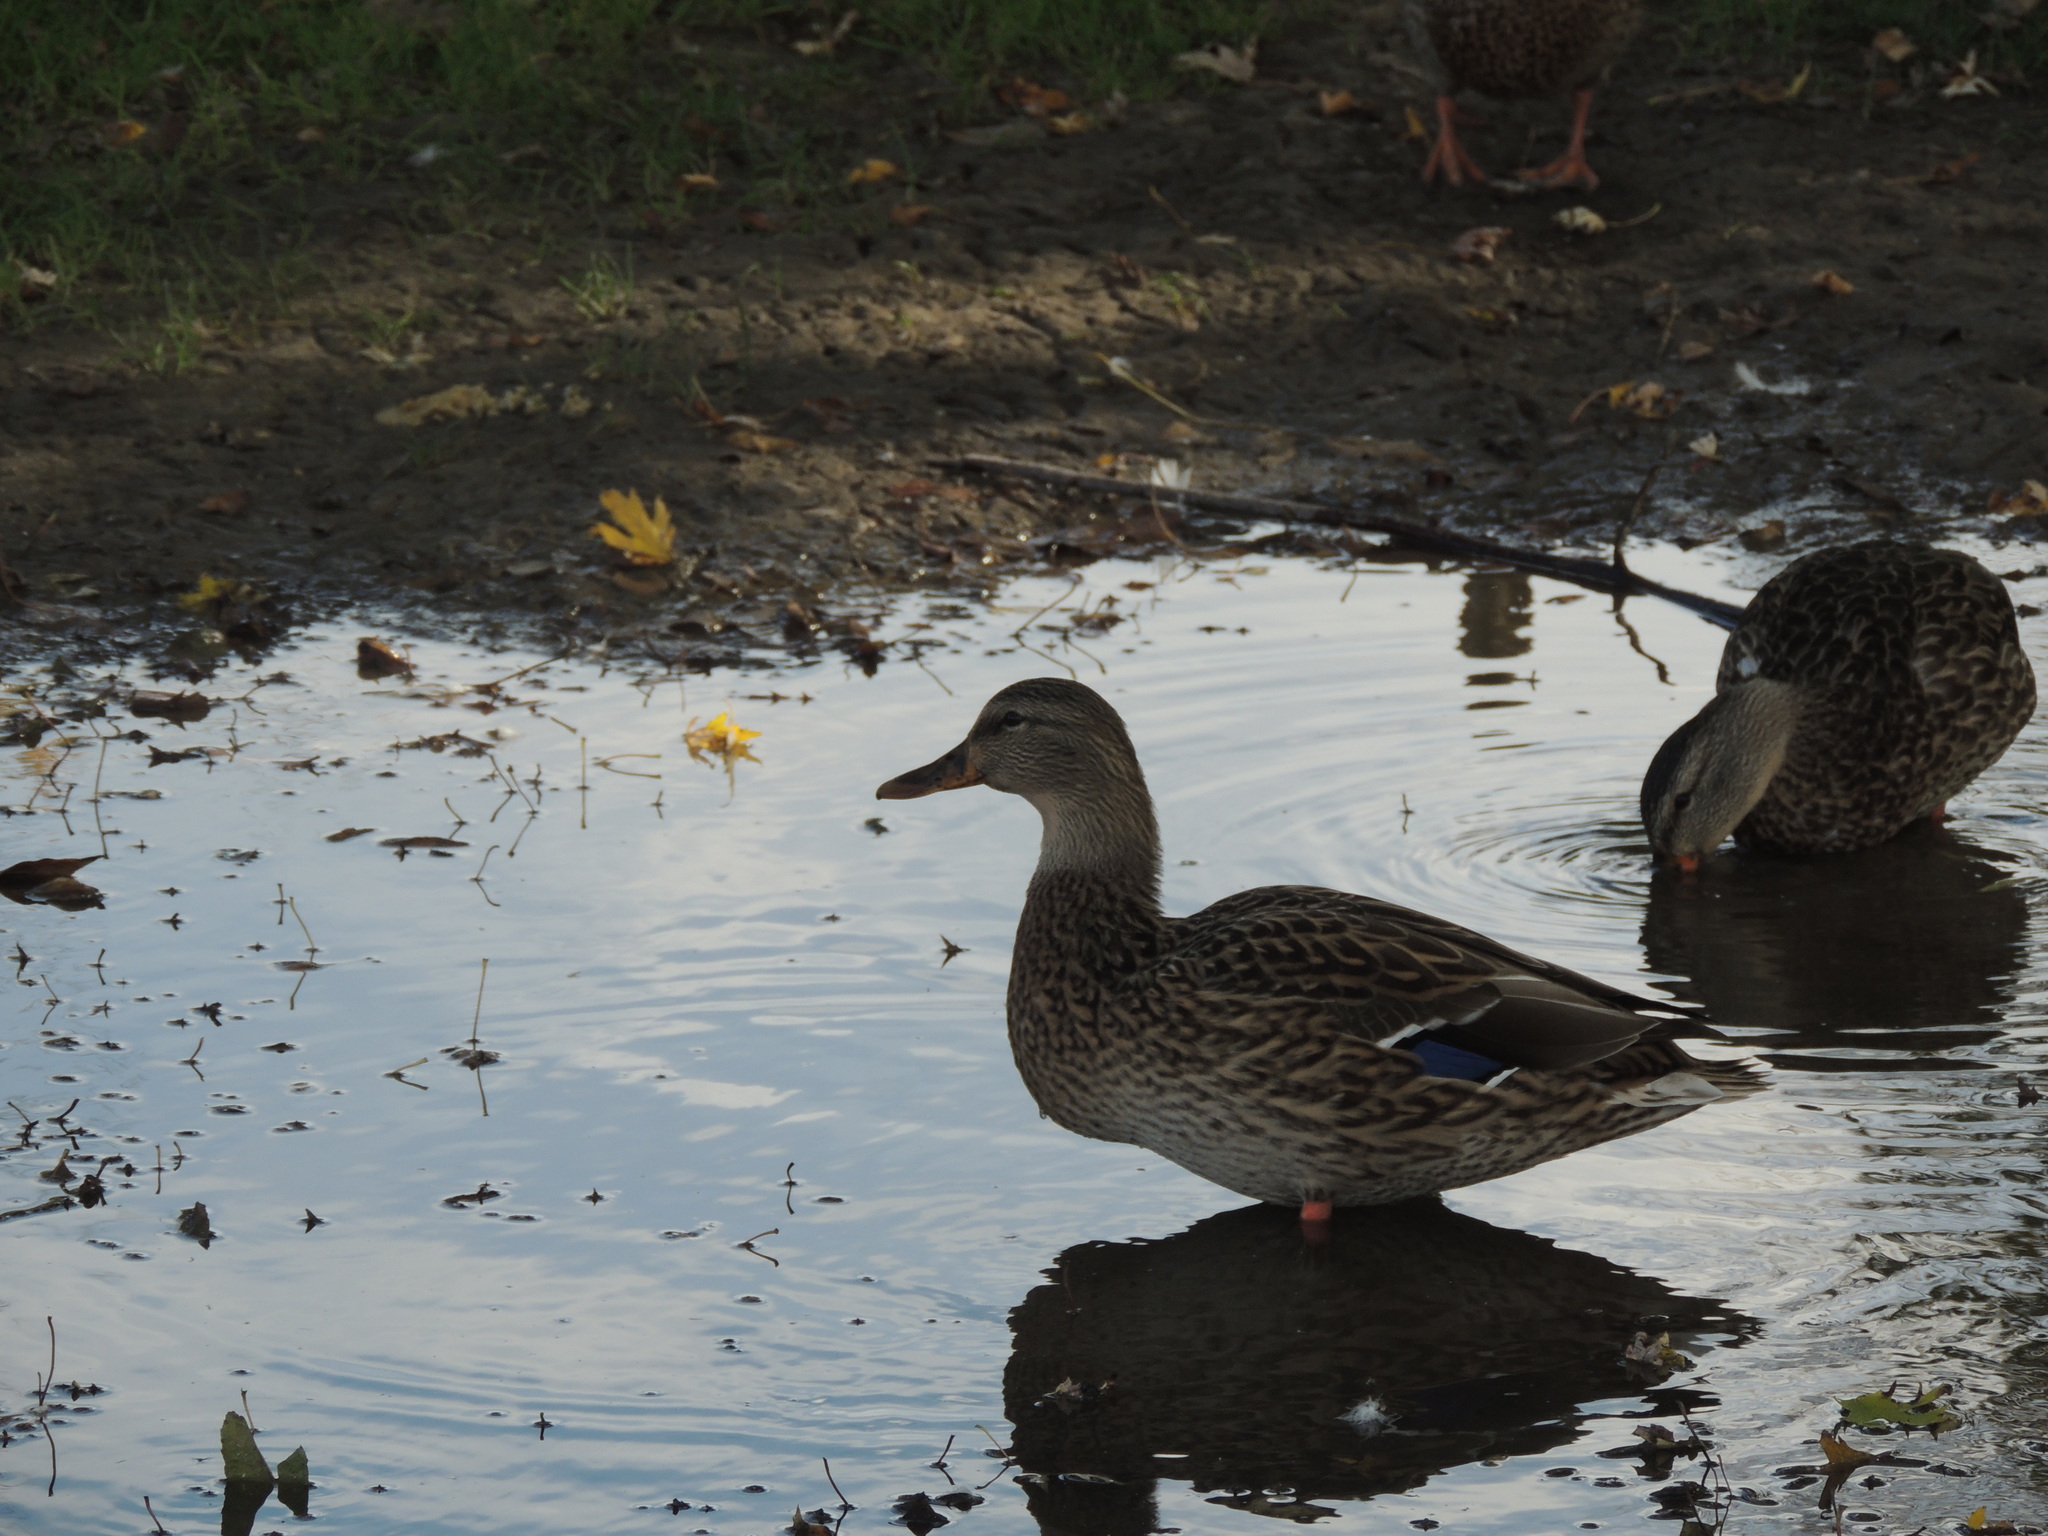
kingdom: Animalia
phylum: Chordata
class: Aves
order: Anseriformes
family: Anatidae
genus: Anas
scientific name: Anas platyrhynchos
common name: Mallard
